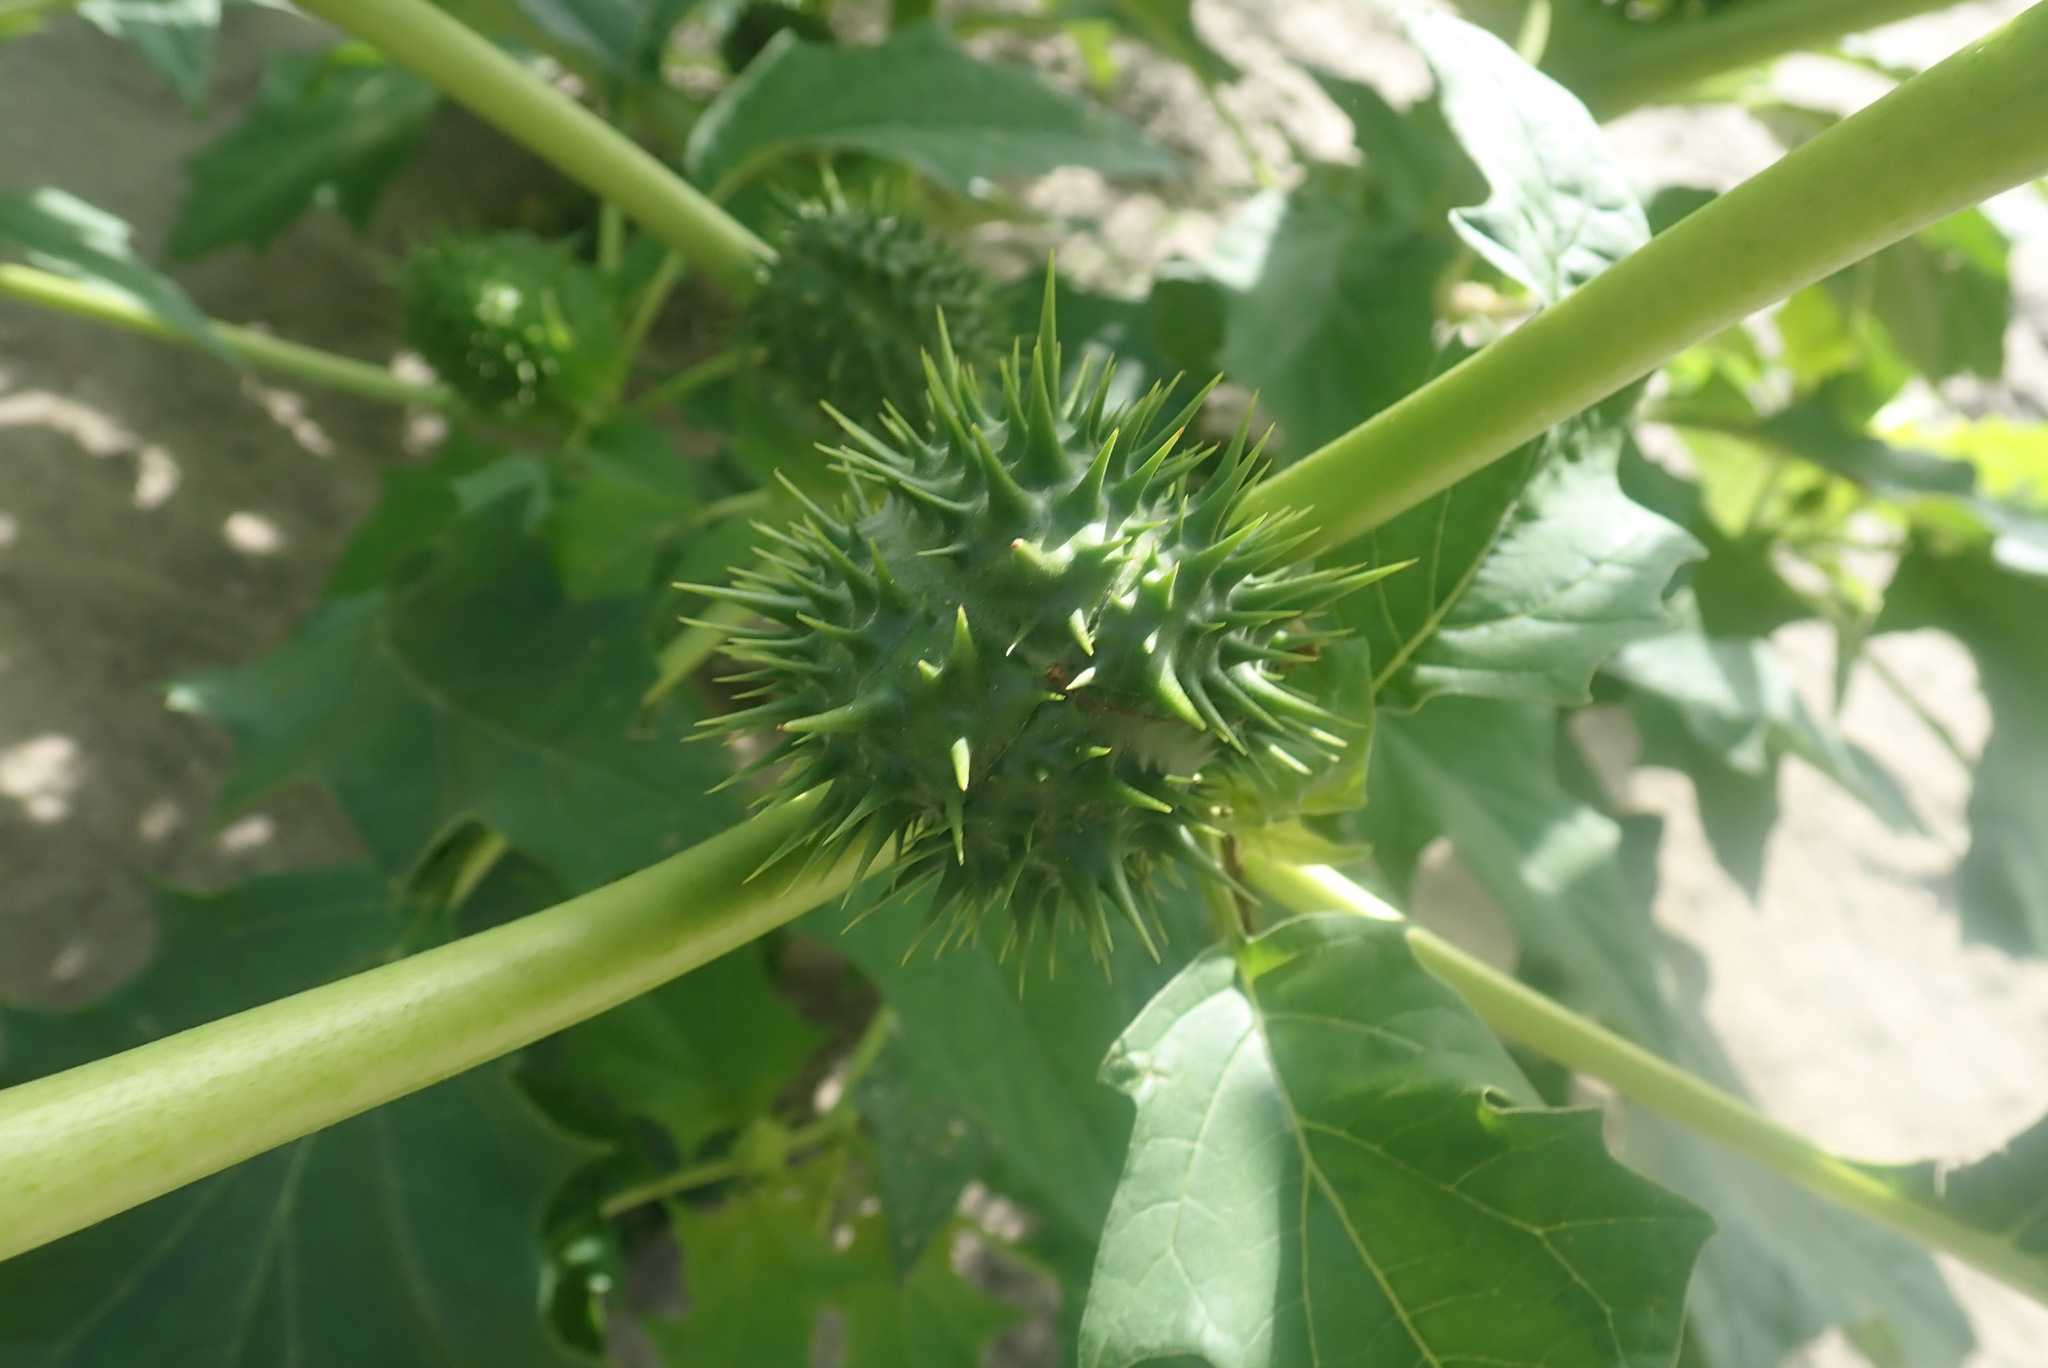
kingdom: Plantae
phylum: Tracheophyta
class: Magnoliopsida
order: Solanales
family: Solanaceae
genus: Datura
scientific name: Datura stramonium
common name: Thorn-apple
